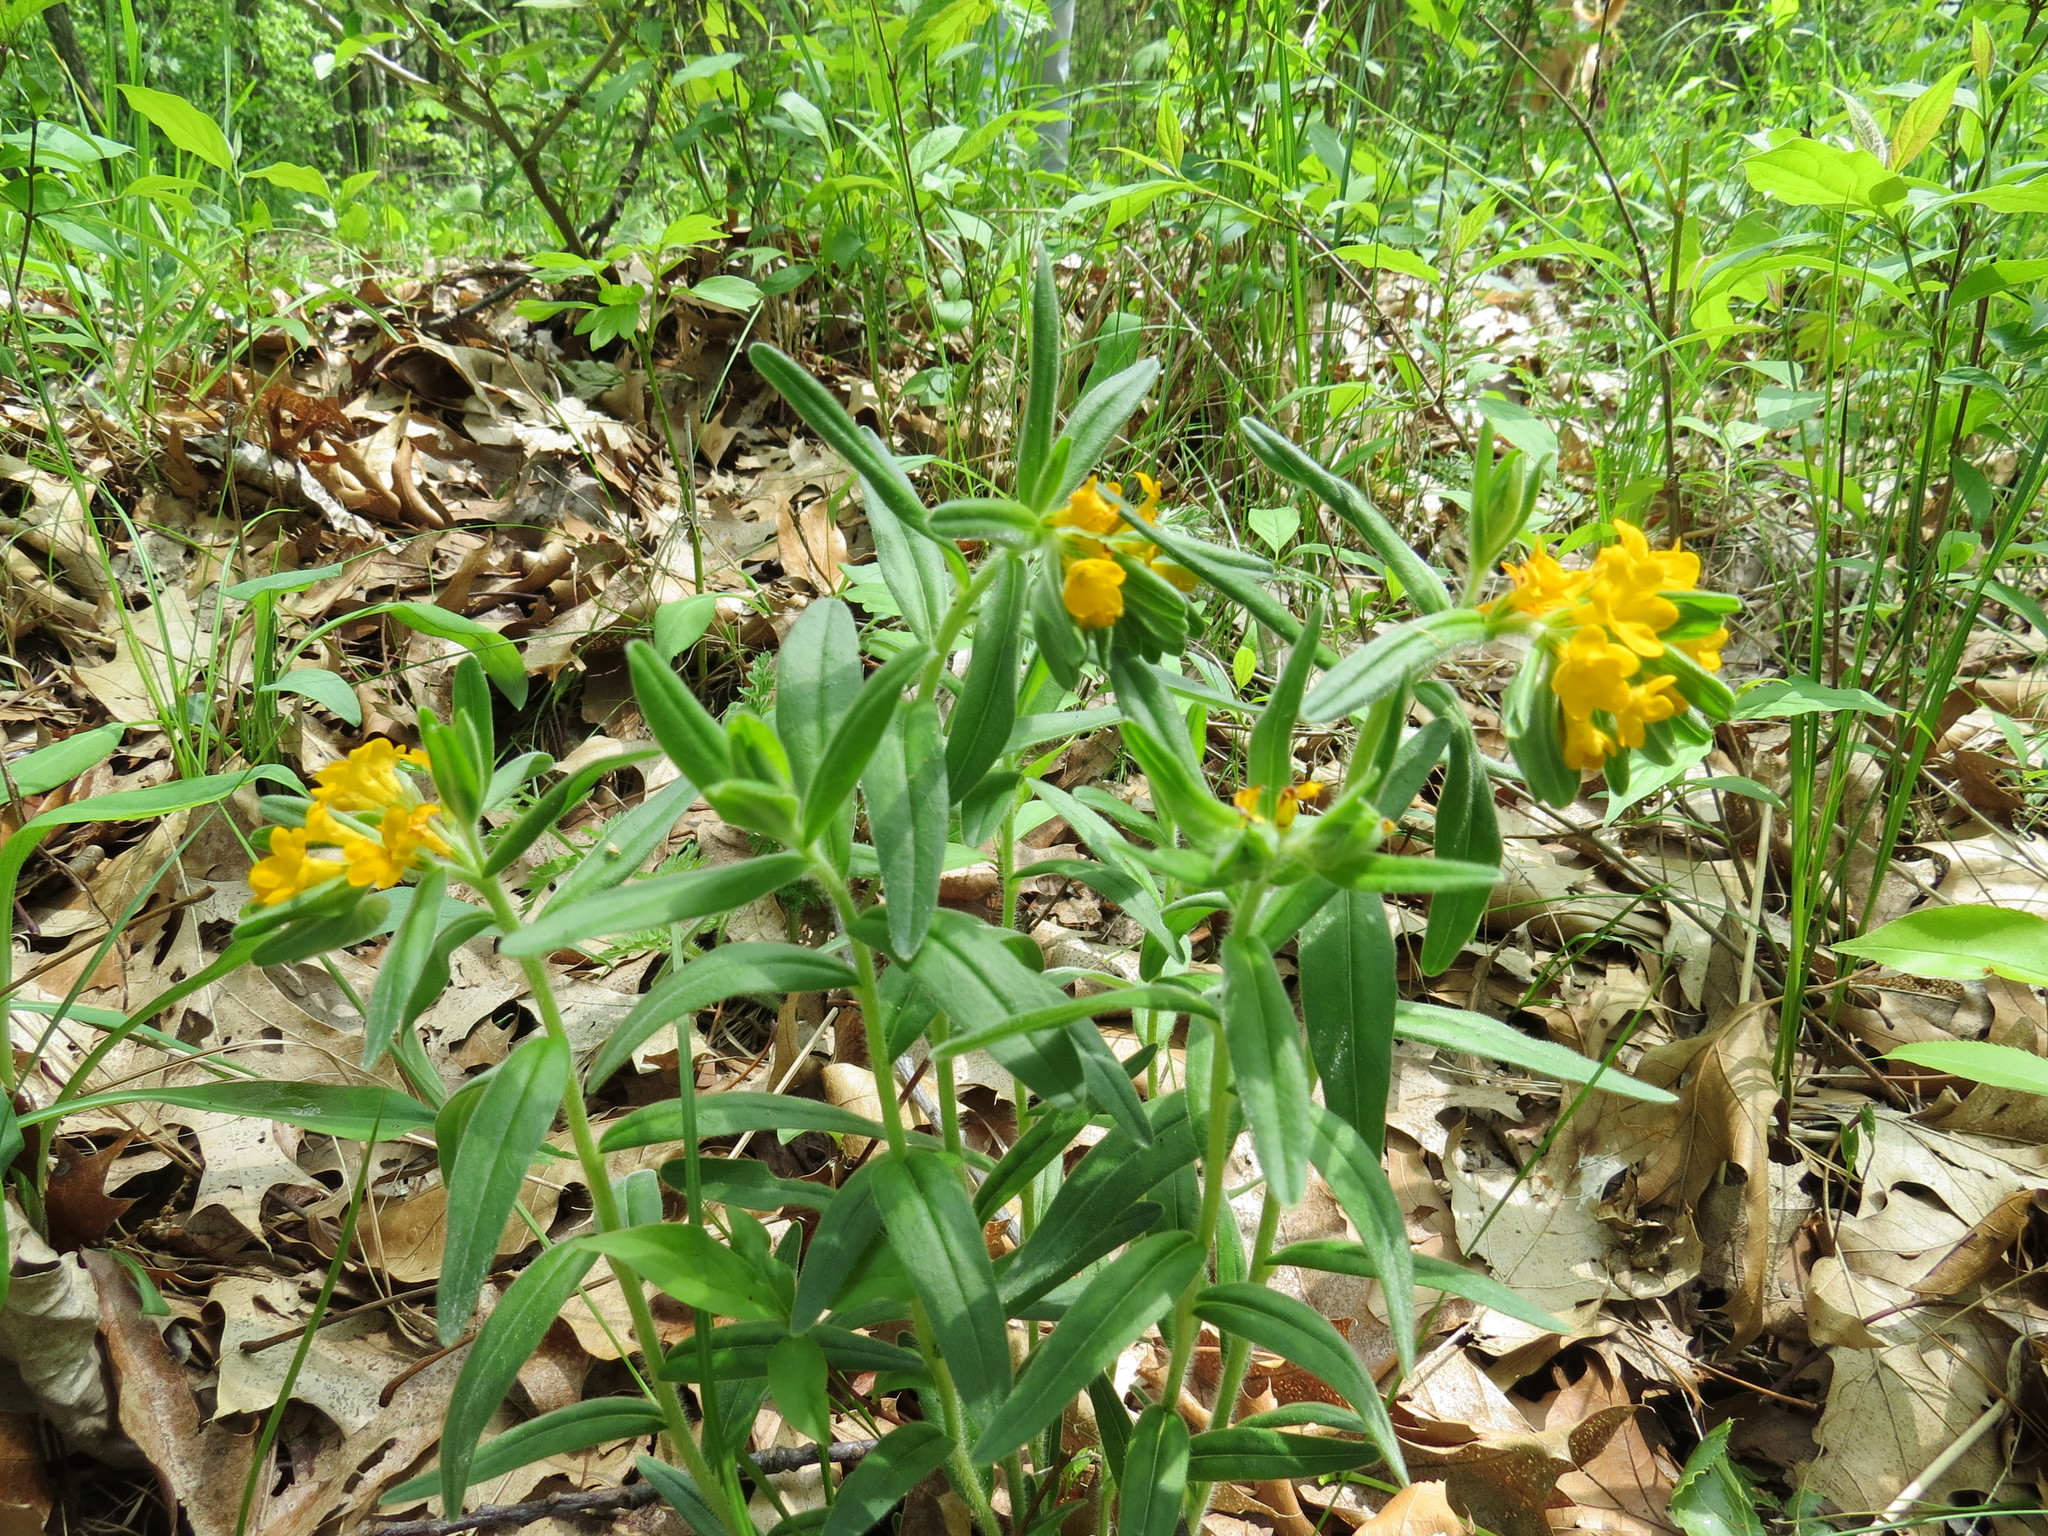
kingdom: Plantae
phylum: Tracheophyta
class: Magnoliopsida
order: Boraginales
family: Boraginaceae
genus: Lithospermum
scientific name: Lithospermum canescens
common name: Hoary puccoon
